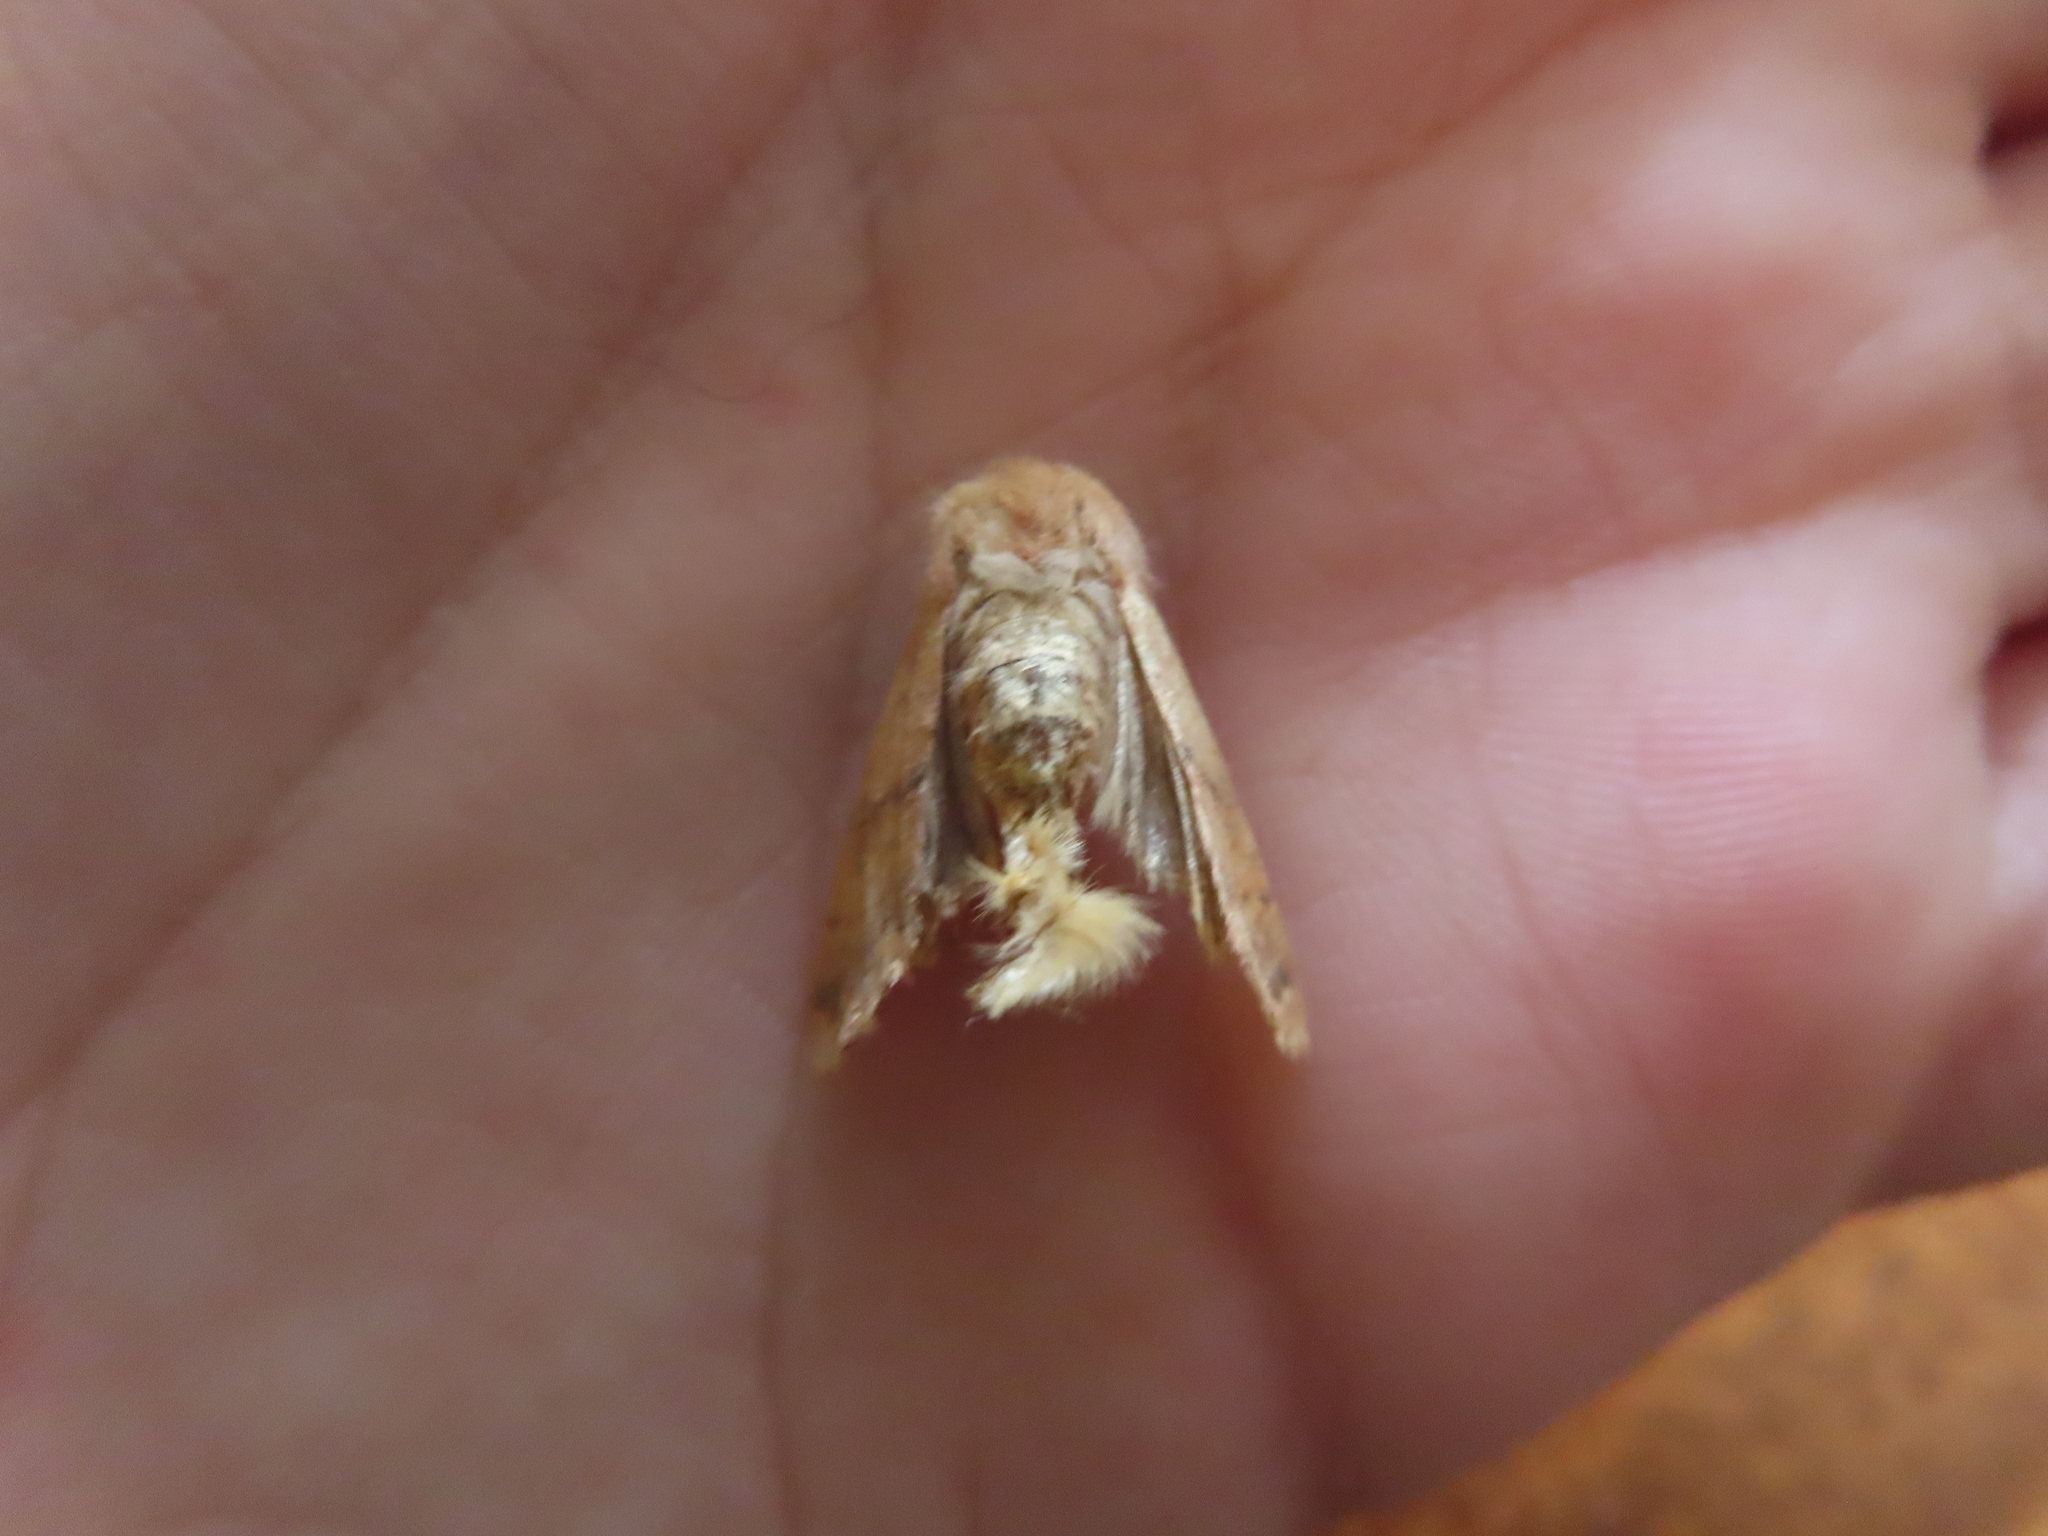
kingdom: Animalia
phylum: Arthropoda
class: Insecta
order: Lepidoptera
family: Noctuidae
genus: Agrochola
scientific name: Agrochola bicolorago
